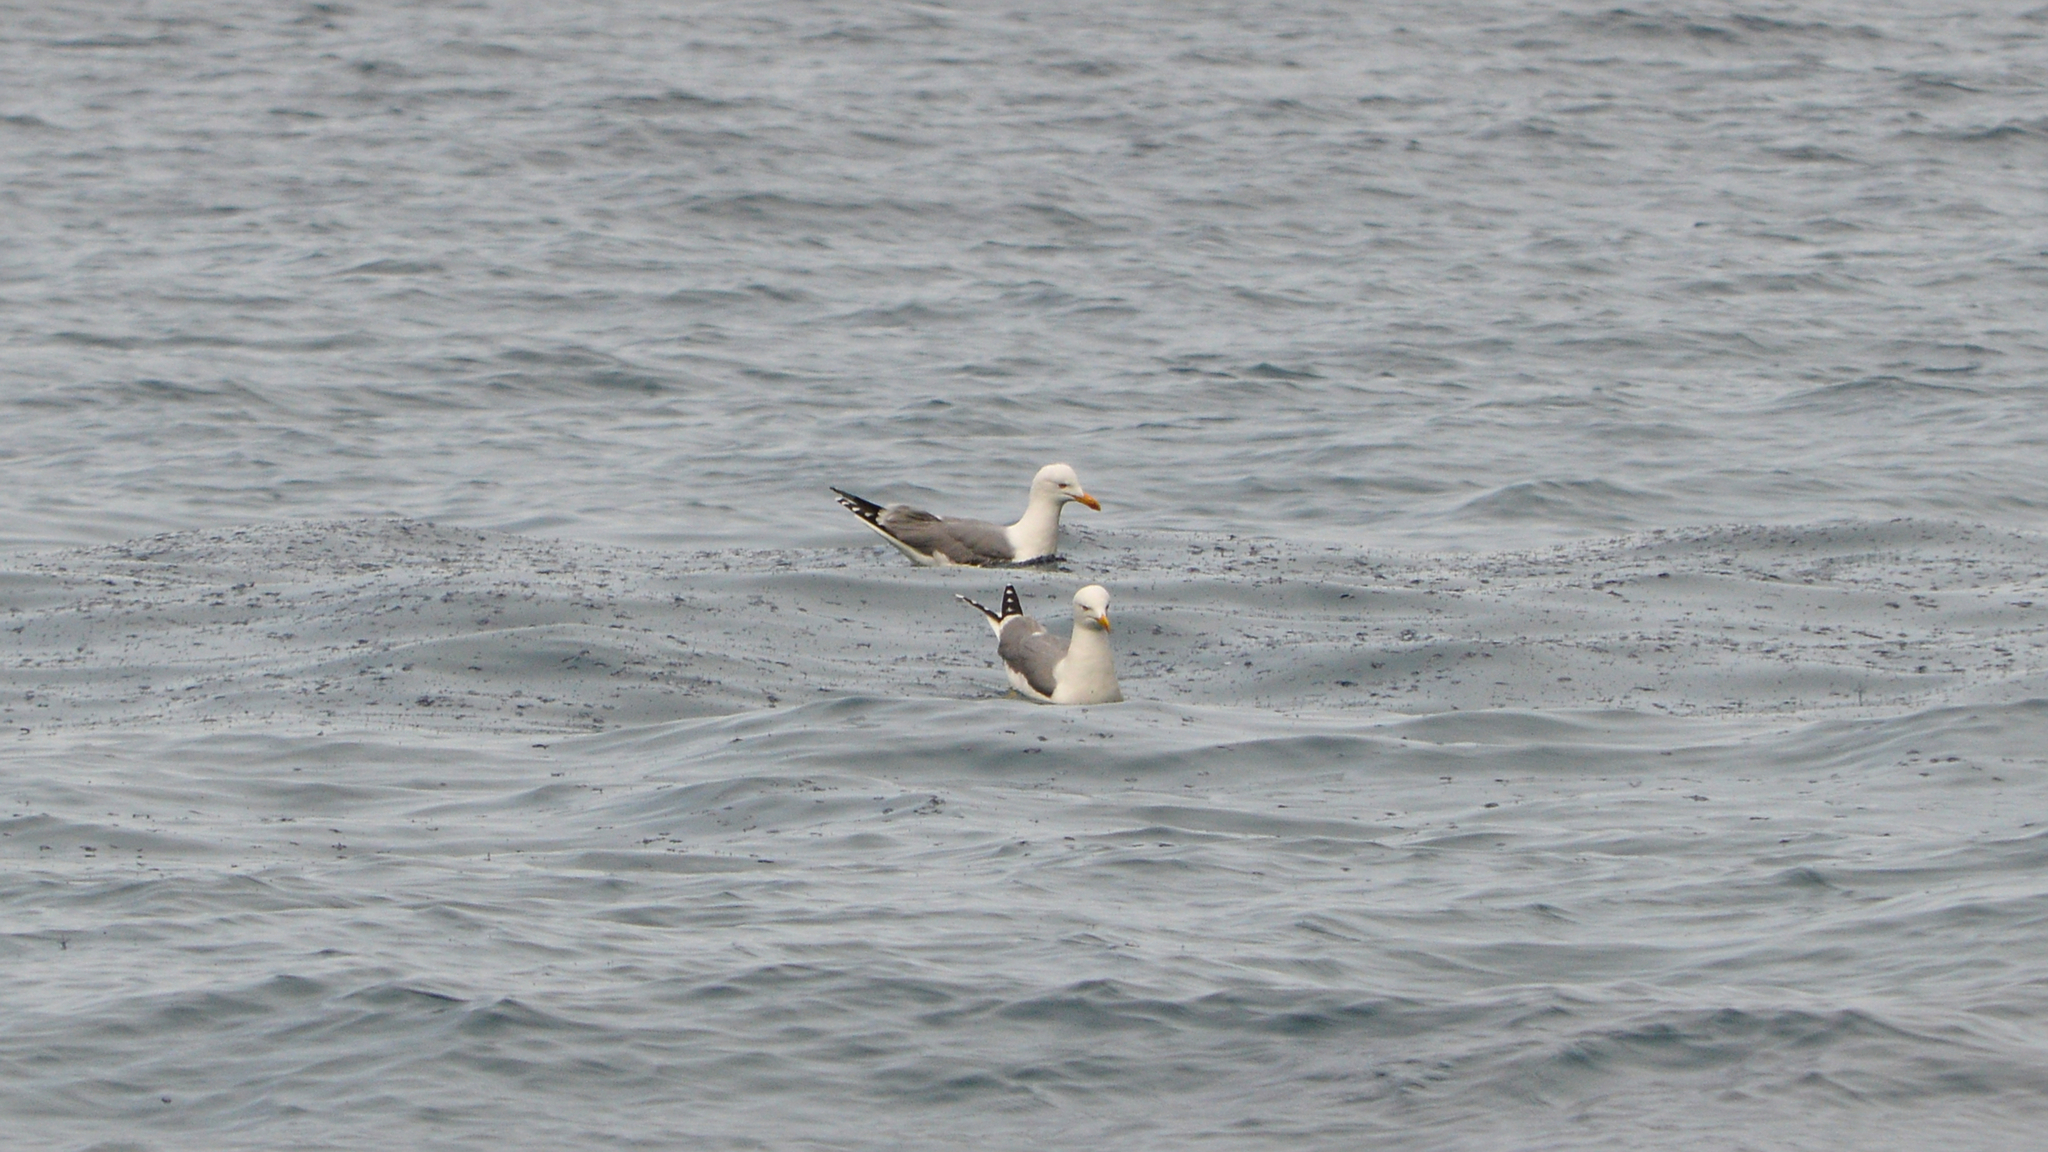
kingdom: Animalia
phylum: Chordata
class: Aves
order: Charadriiformes
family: Laridae
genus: Larus
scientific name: Larus michahellis
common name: Yellow-legged gull
